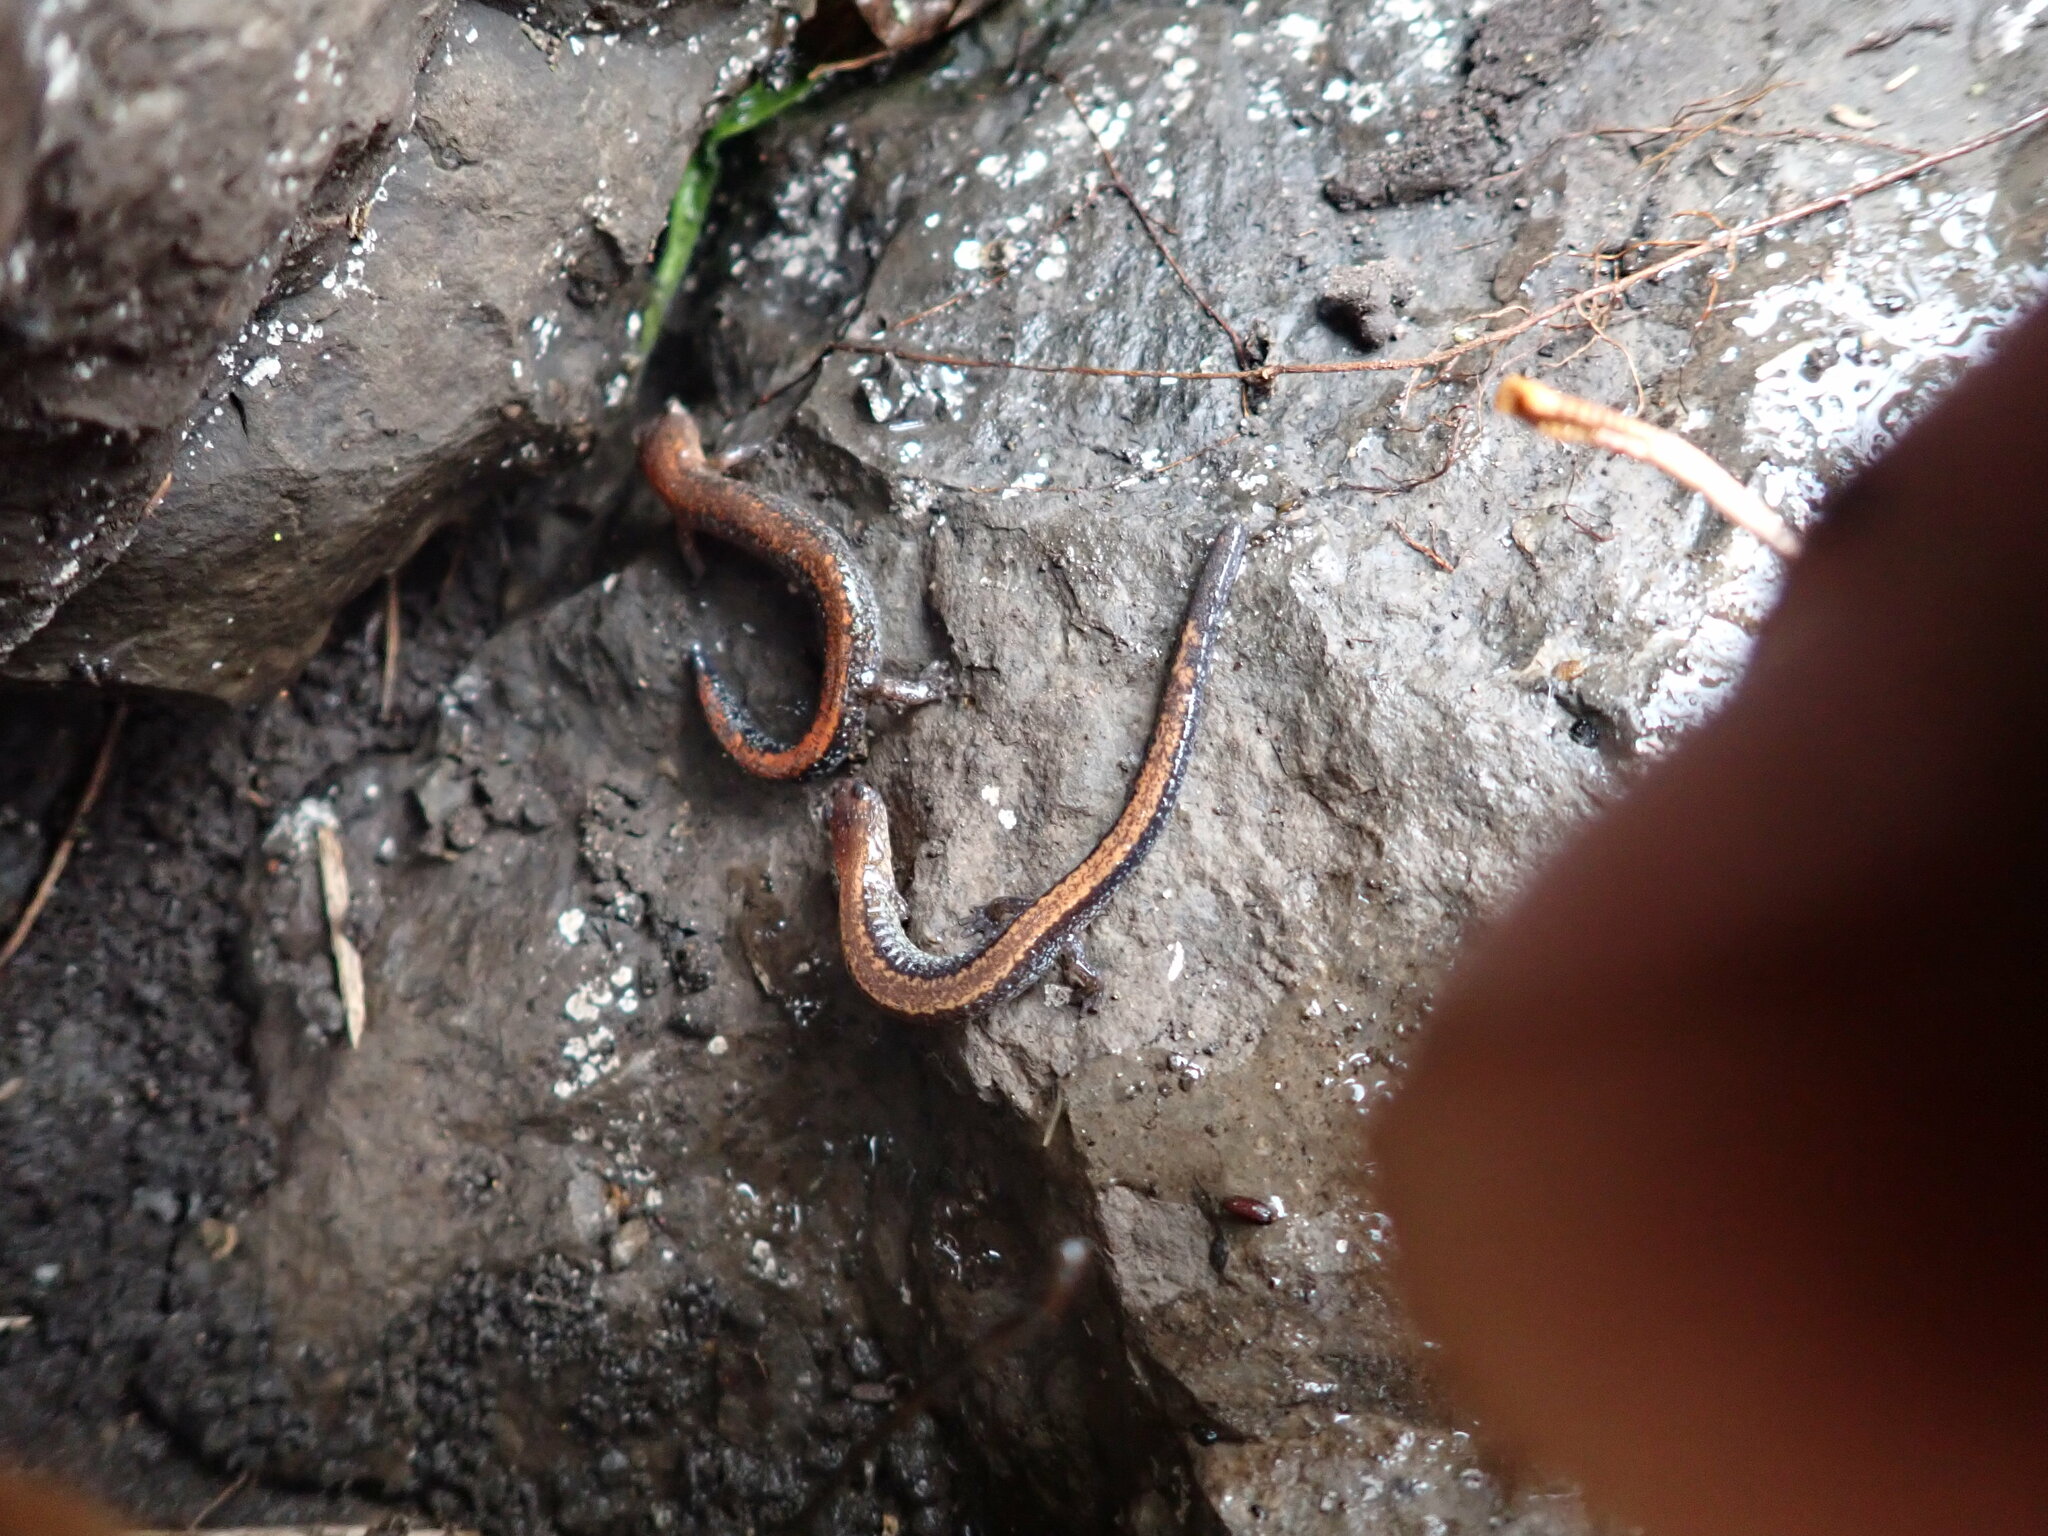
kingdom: Animalia
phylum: Chordata
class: Amphibia
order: Caudata
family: Plethodontidae
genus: Plethodon
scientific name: Plethodon cinereus
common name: Redback salamander
